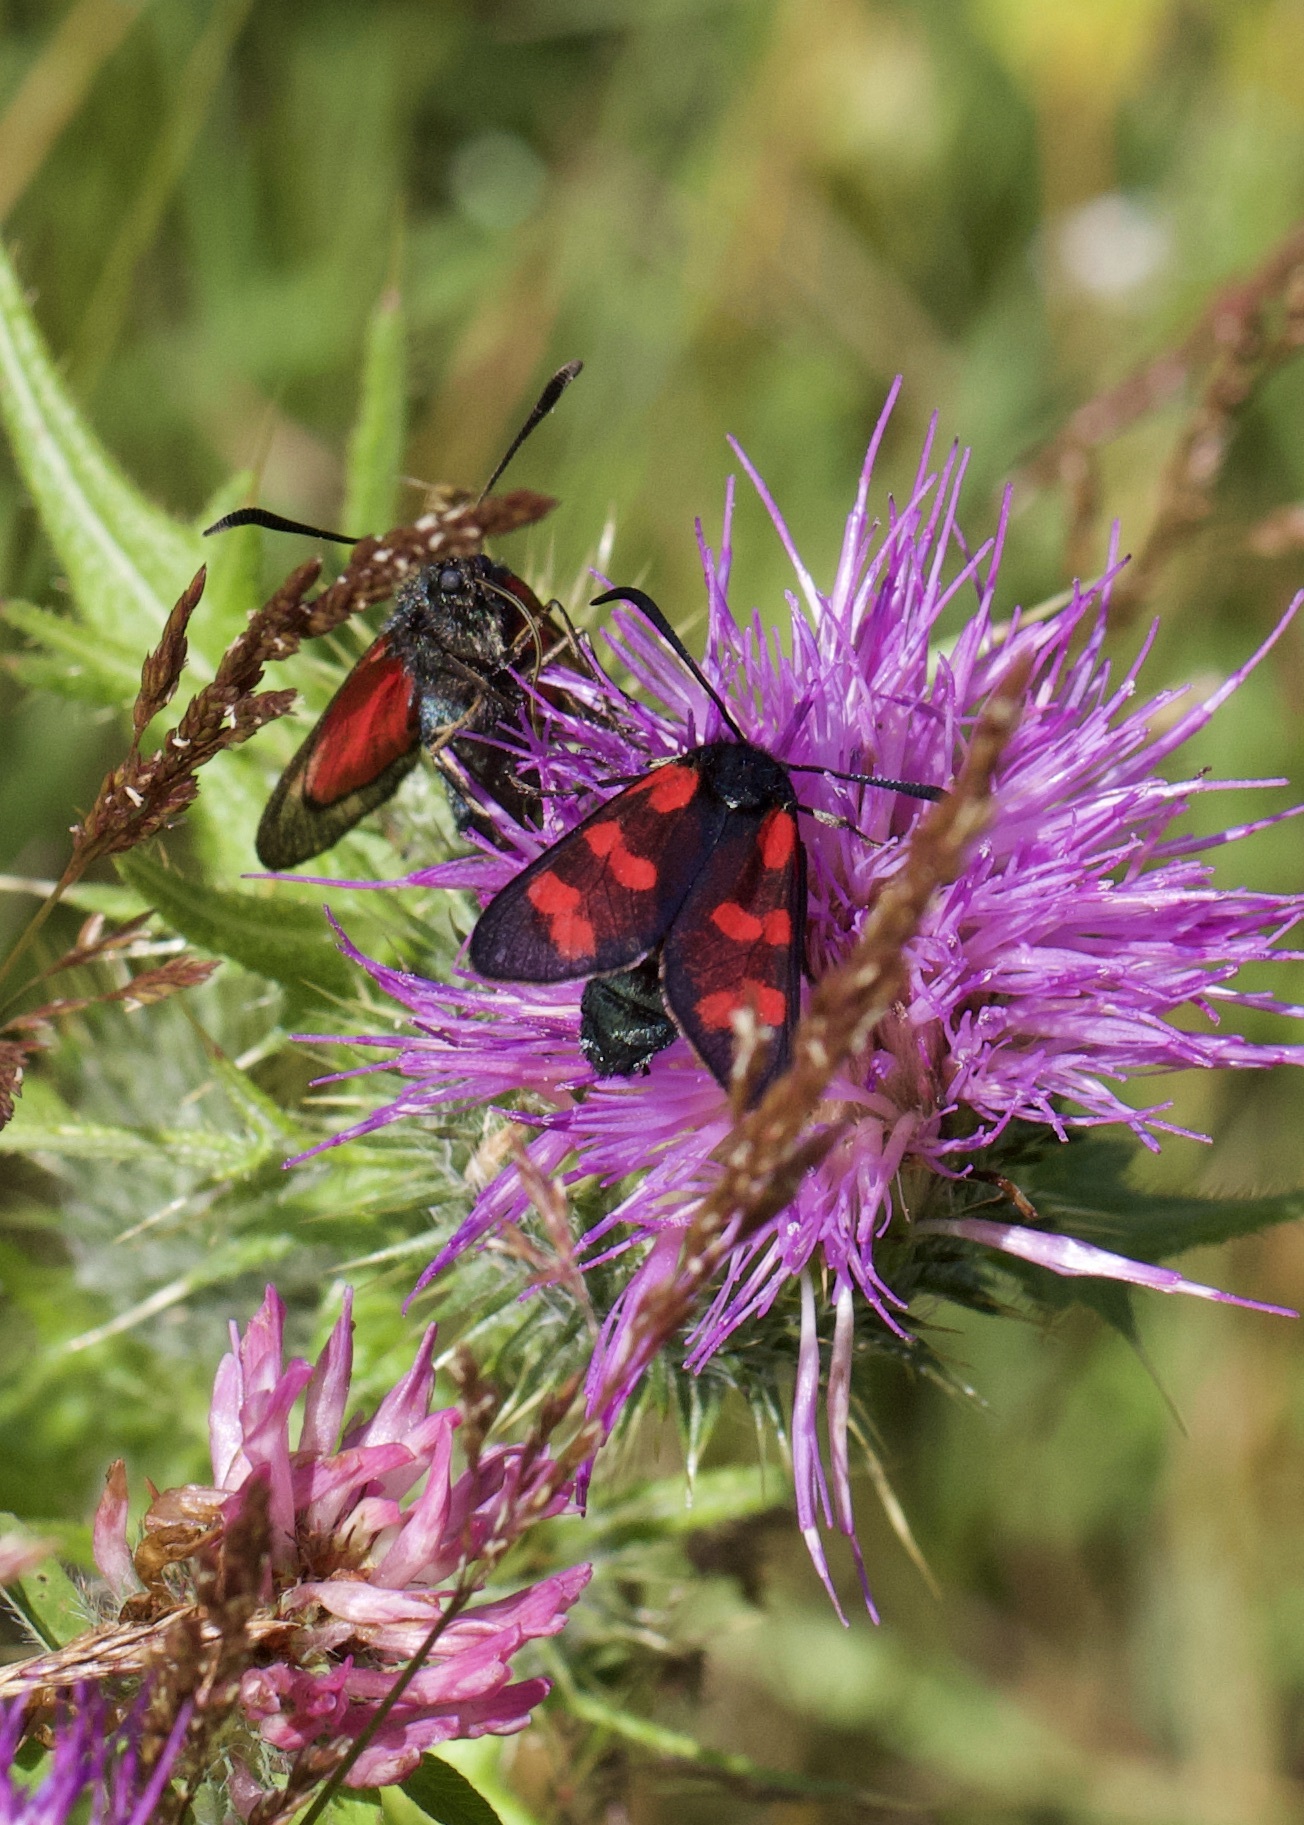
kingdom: Animalia
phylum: Arthropoda
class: Insecta
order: Lepidoptera
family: Zygaenidae
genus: Zygaena
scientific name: Zygaena filipendulae
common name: Six-spot burnet
